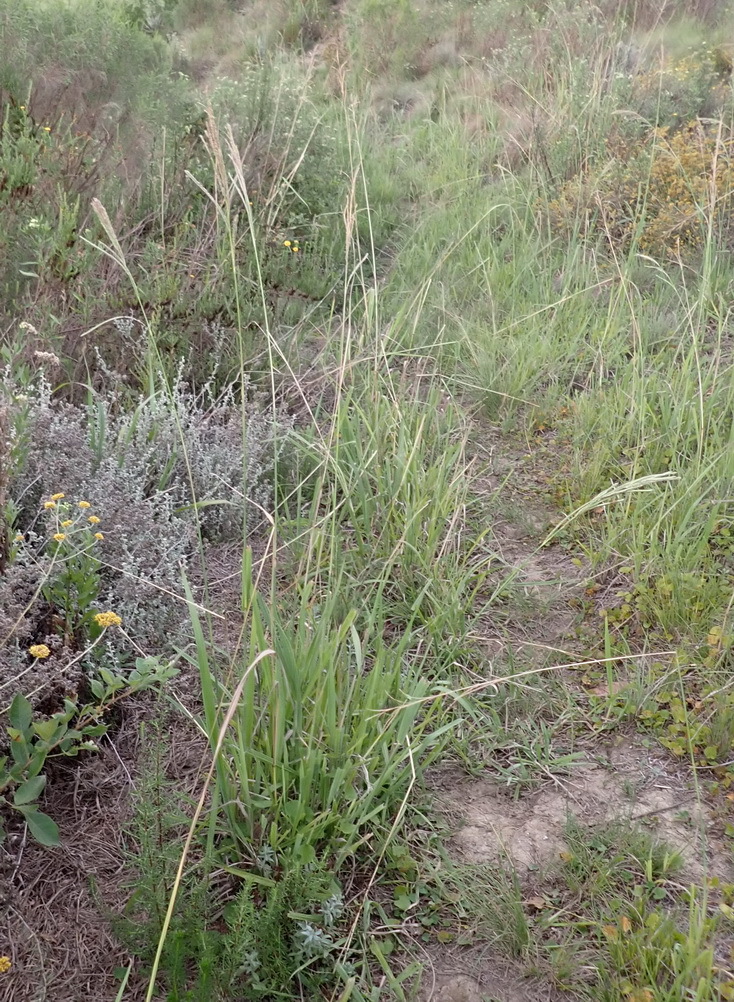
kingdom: Plantae
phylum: Tracheophyta
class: Liliopsida
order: Poales
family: Poaceae
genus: Paspalum
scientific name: Paspalum urvillei
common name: Vasey's grass
